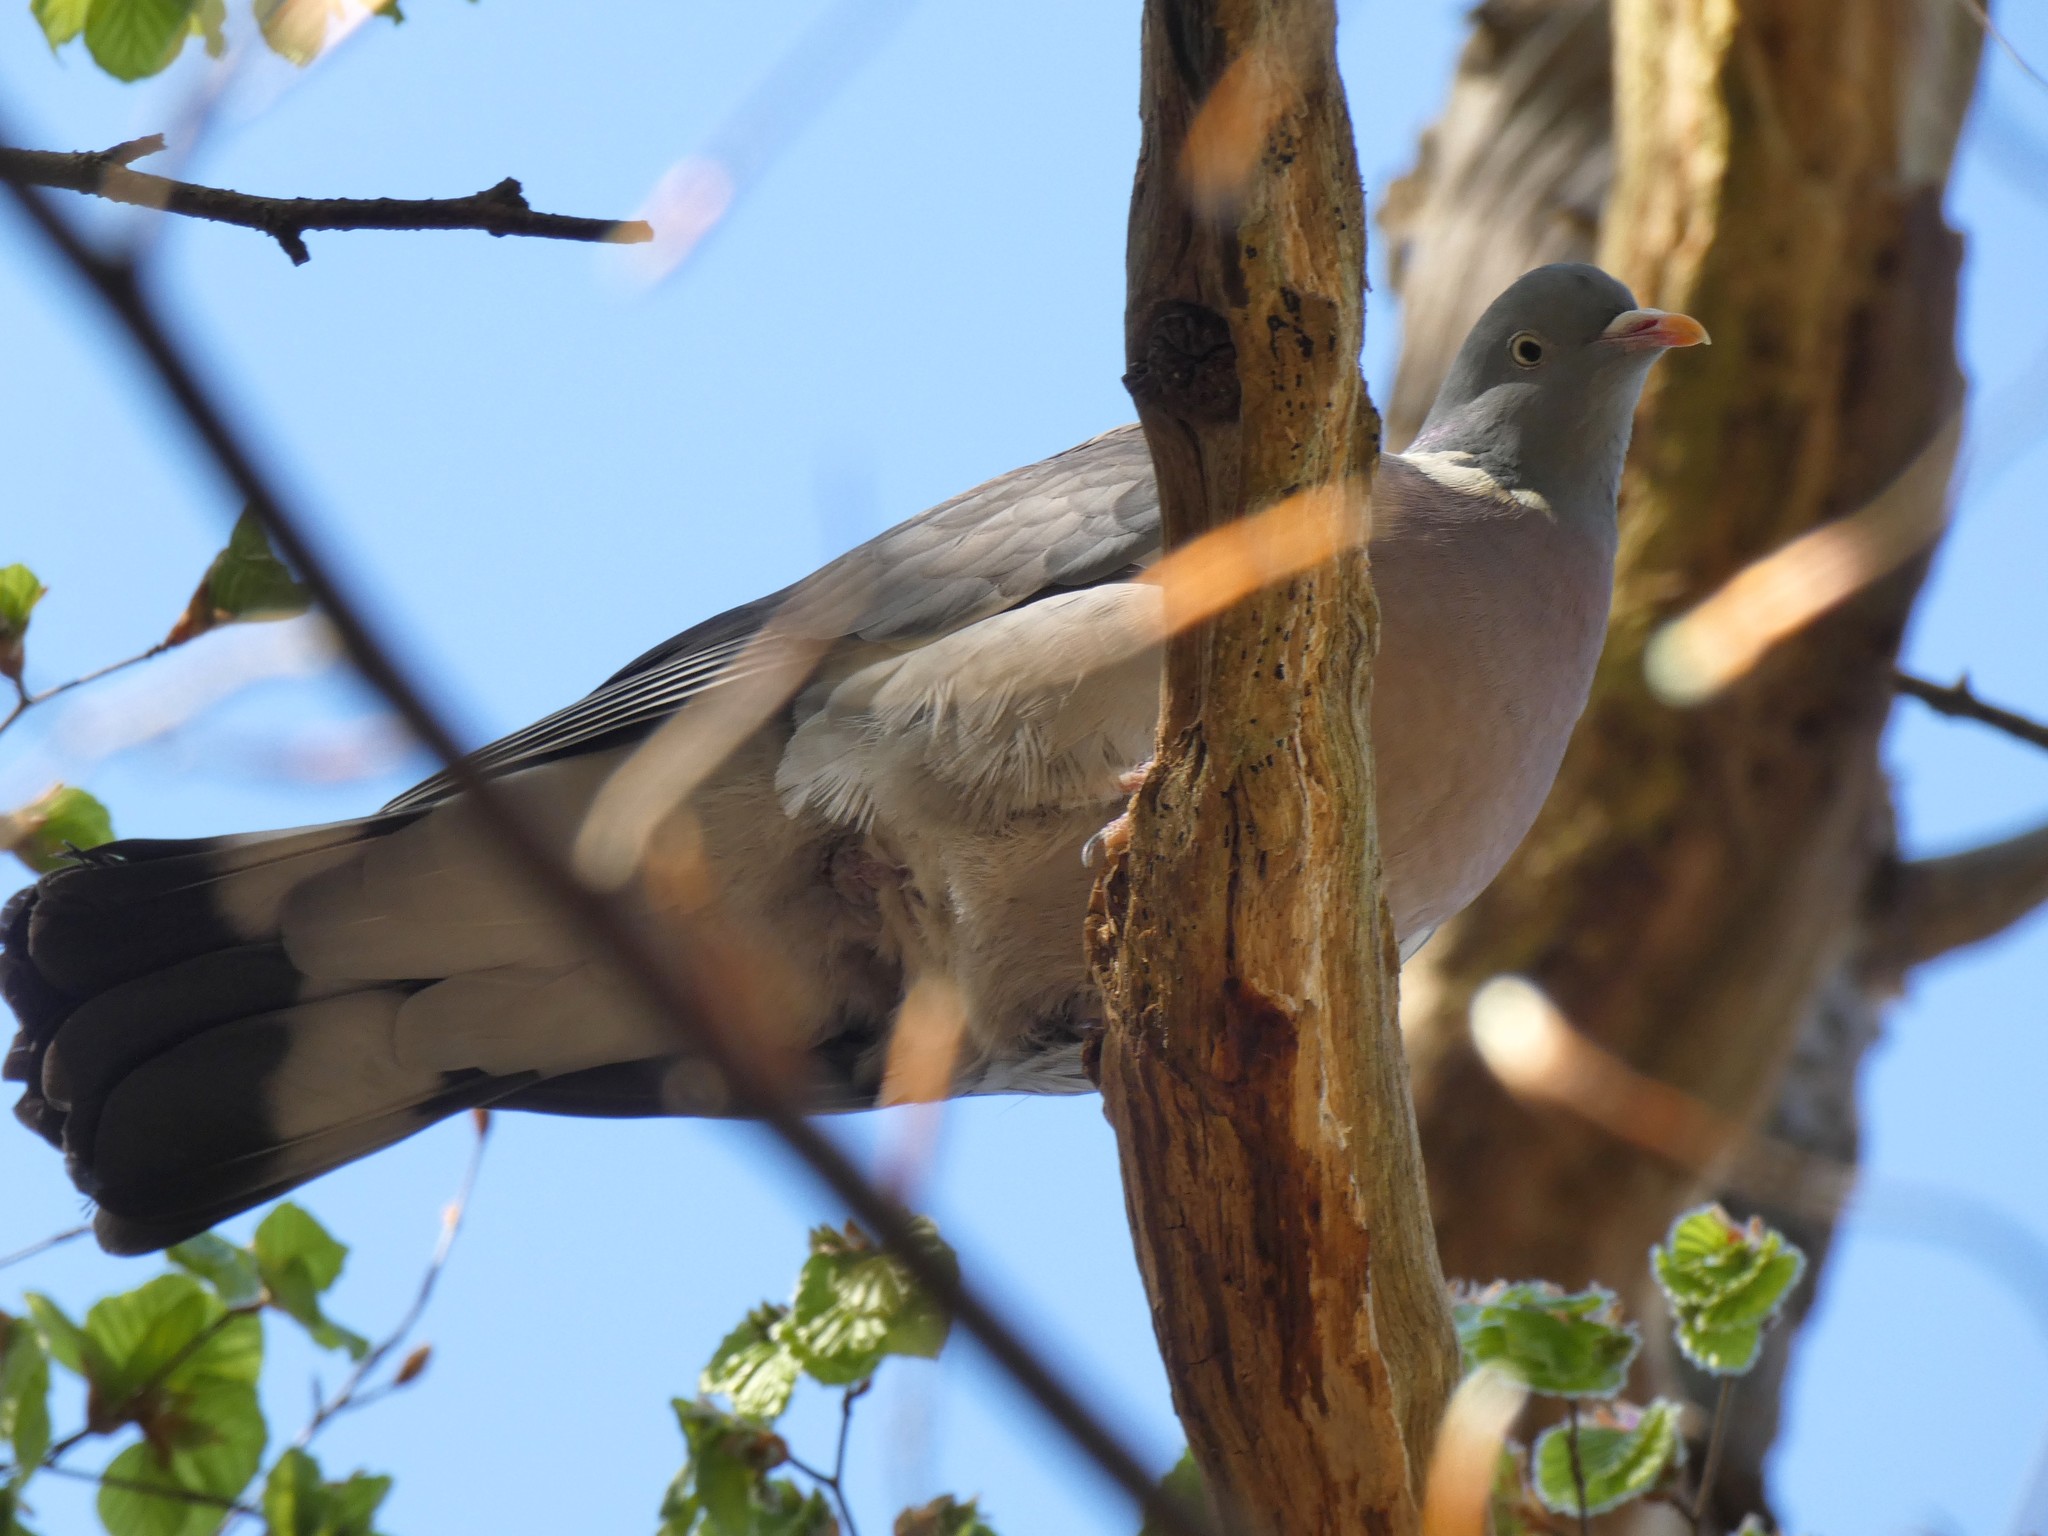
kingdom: Animalia
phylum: Chordata
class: Aves
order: Columbiformes
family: Columbidae
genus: Columba
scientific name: Columba palumbus
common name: Common wood pigeon
